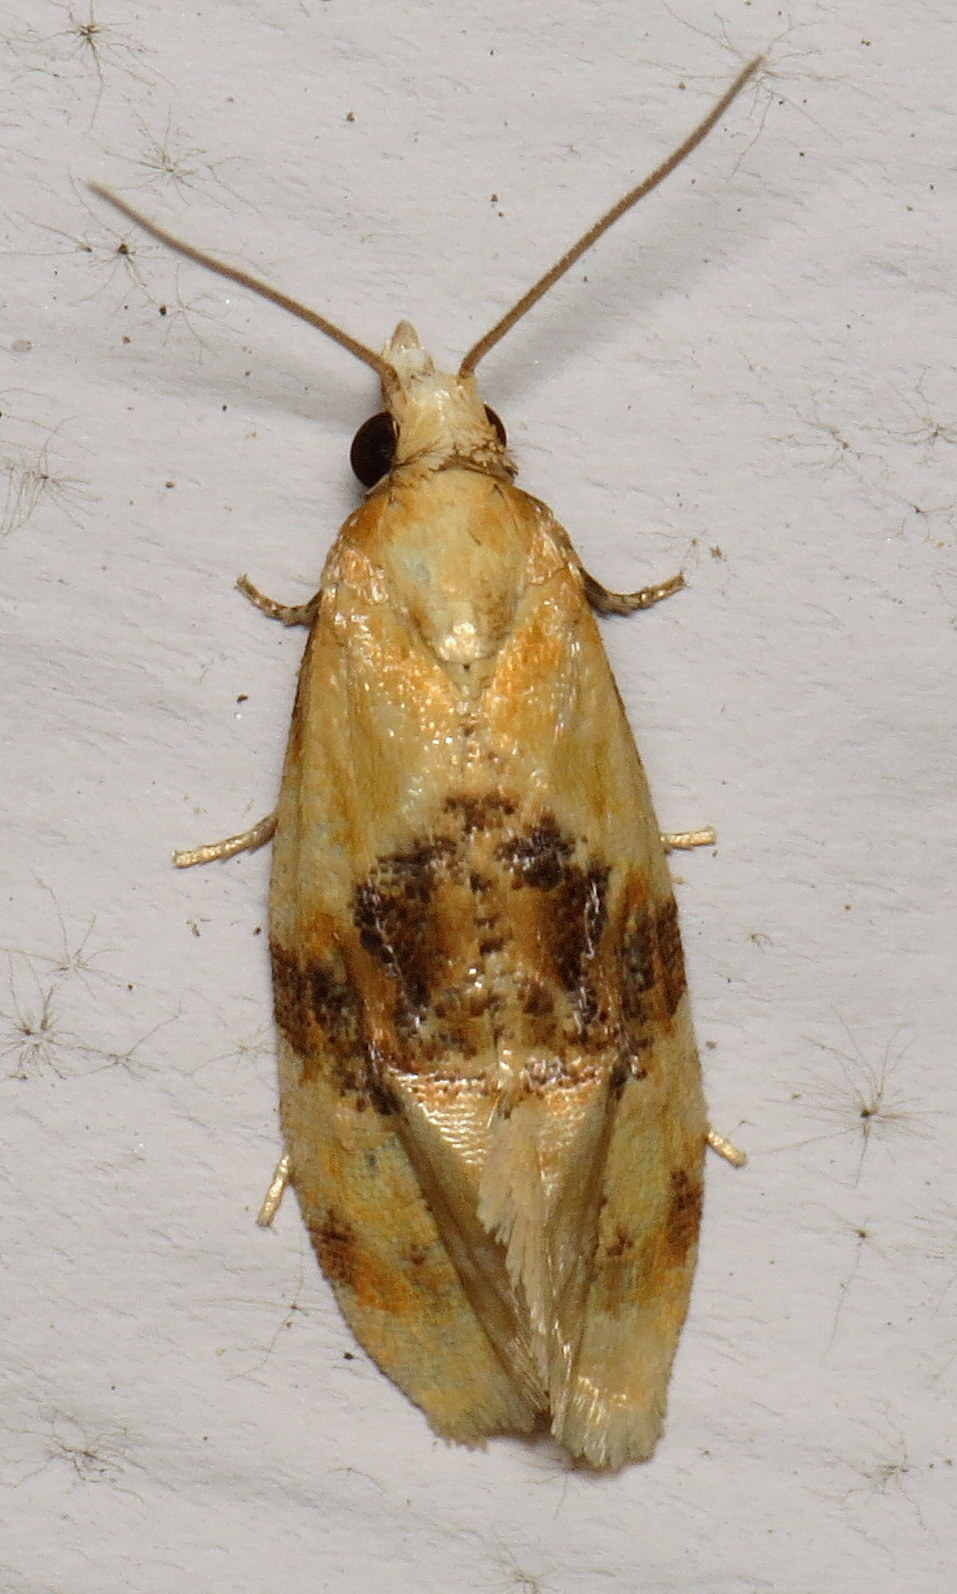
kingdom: Animalia
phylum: Arthropoda
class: Insecta
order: Lepidoptera
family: Tortricidae
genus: Cochylis
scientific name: Cochylis Cochylichroa hospes
